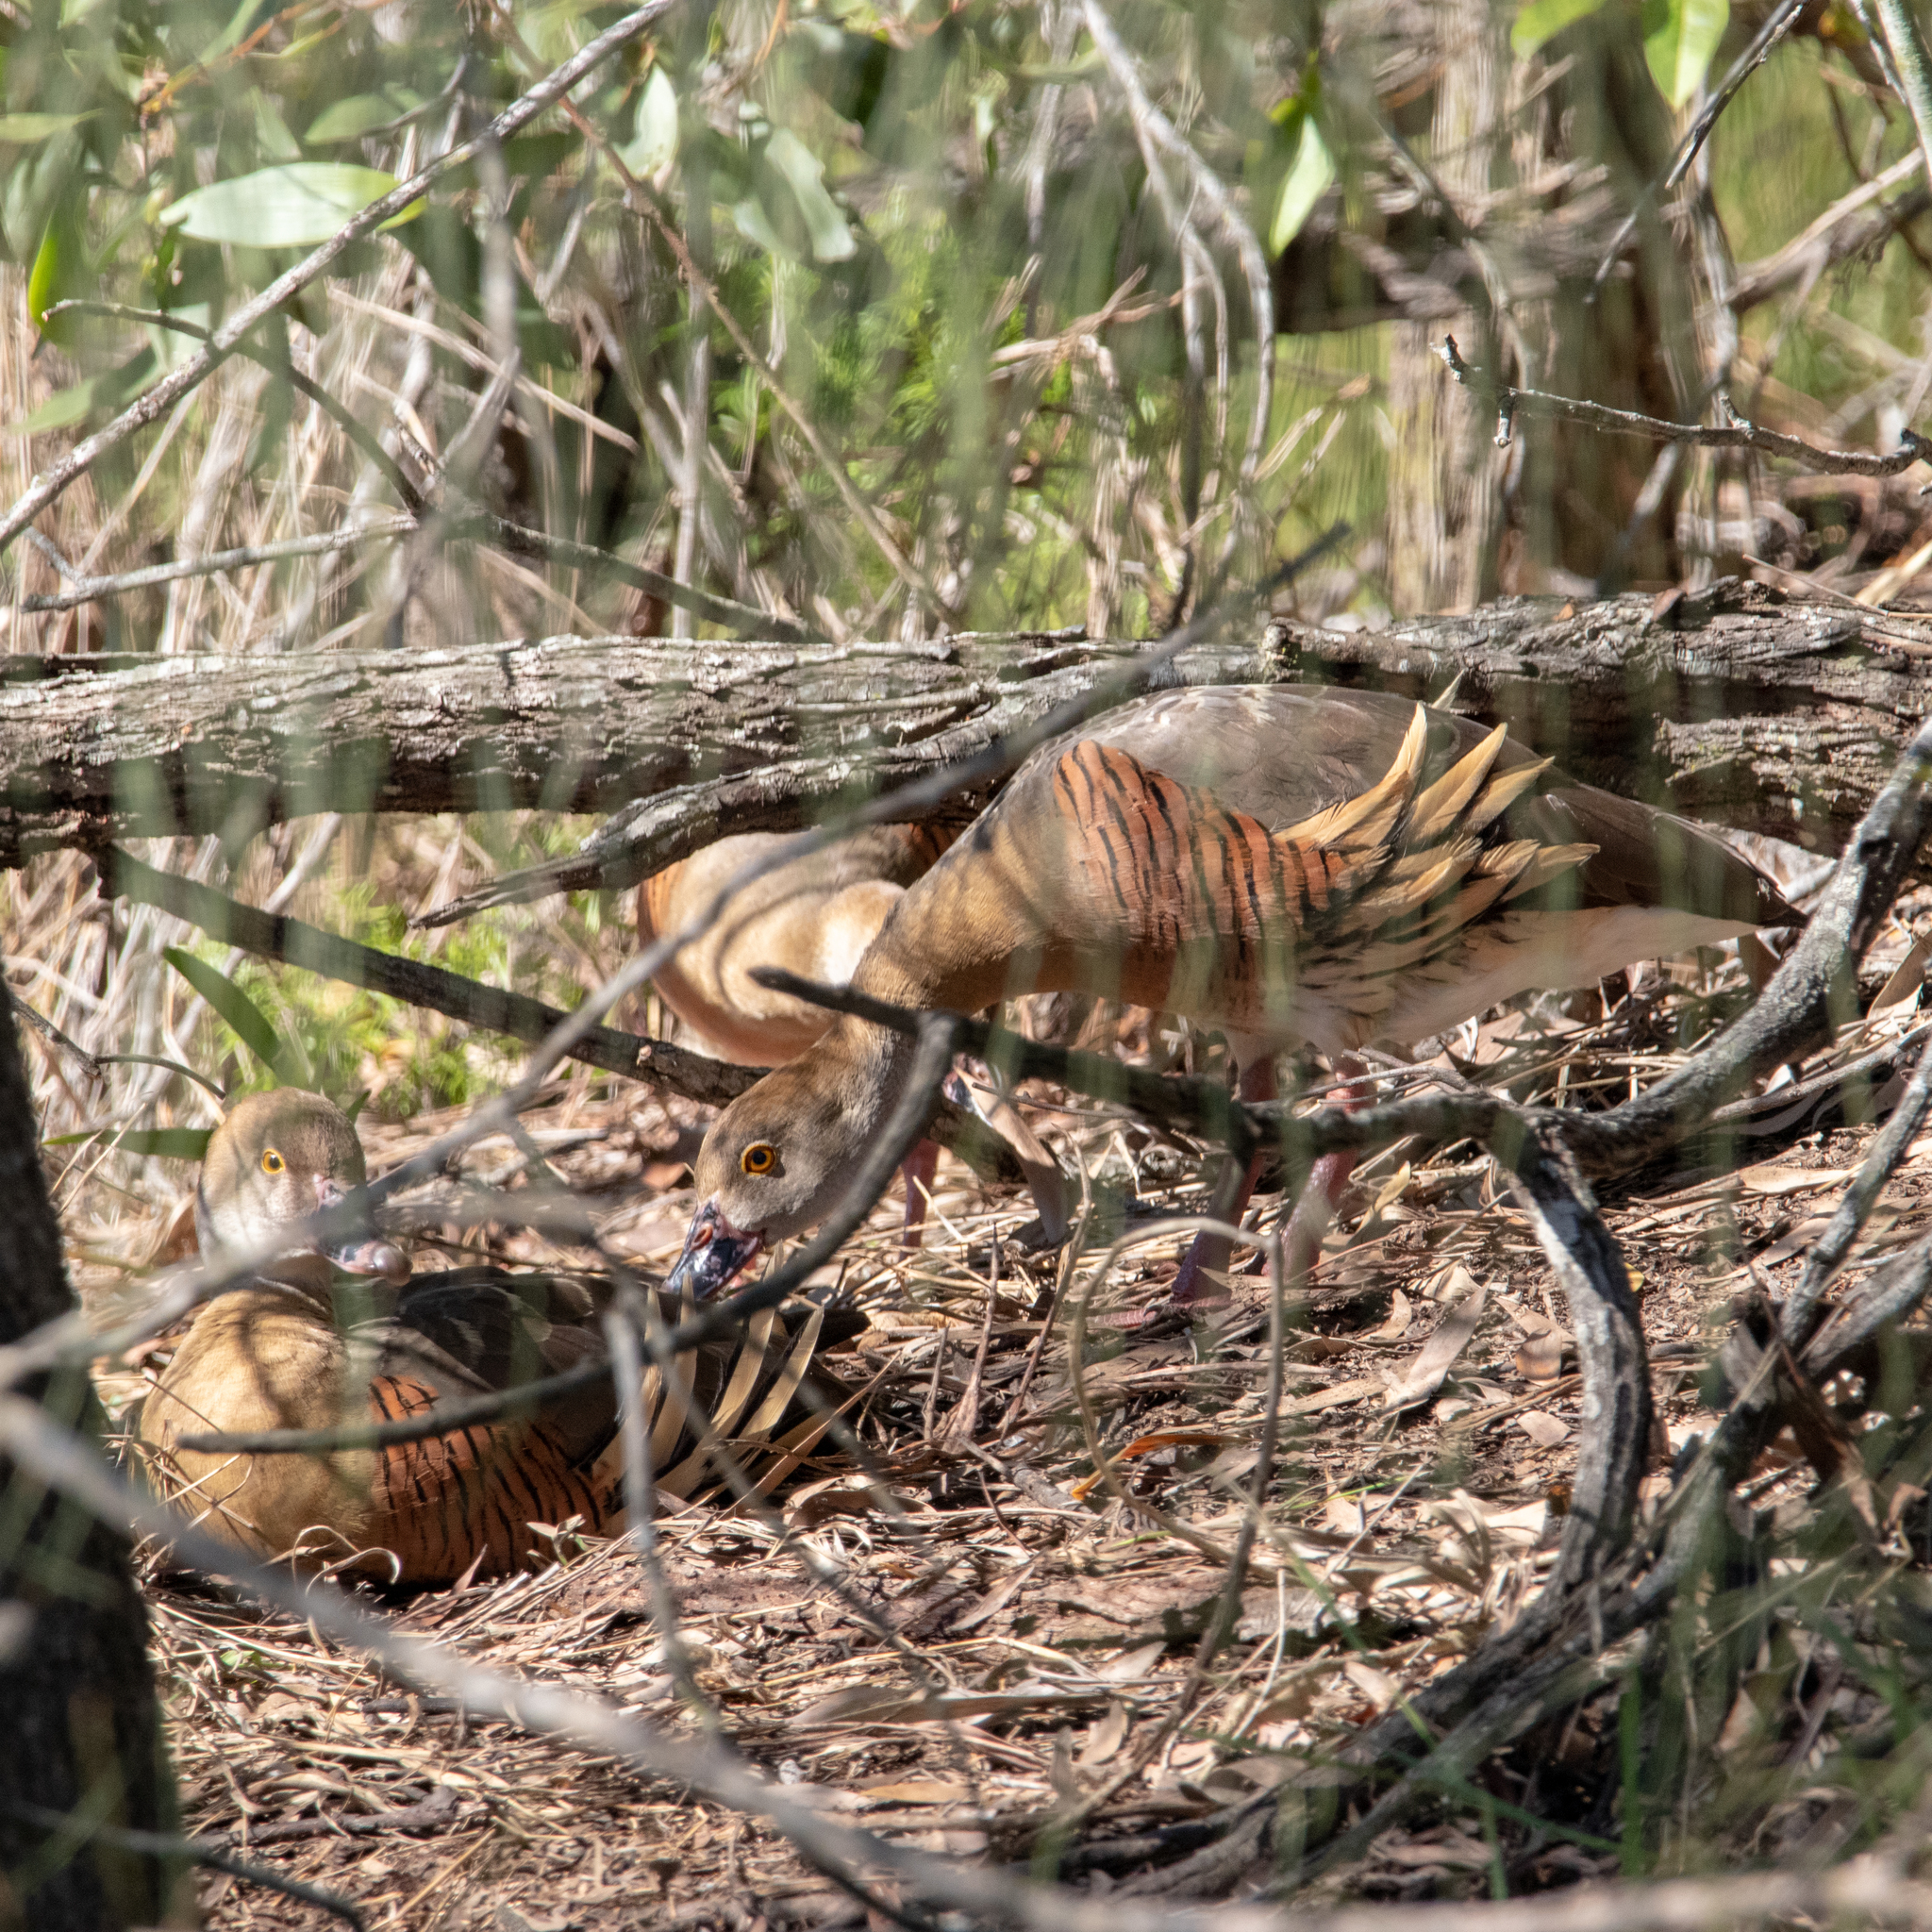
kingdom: Animalia
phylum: Chordata
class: Aves
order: Anseriformes
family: Anatidae
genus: Dendrocygna
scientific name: Dendrocygna eytoni
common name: Plumed whistling-duck
